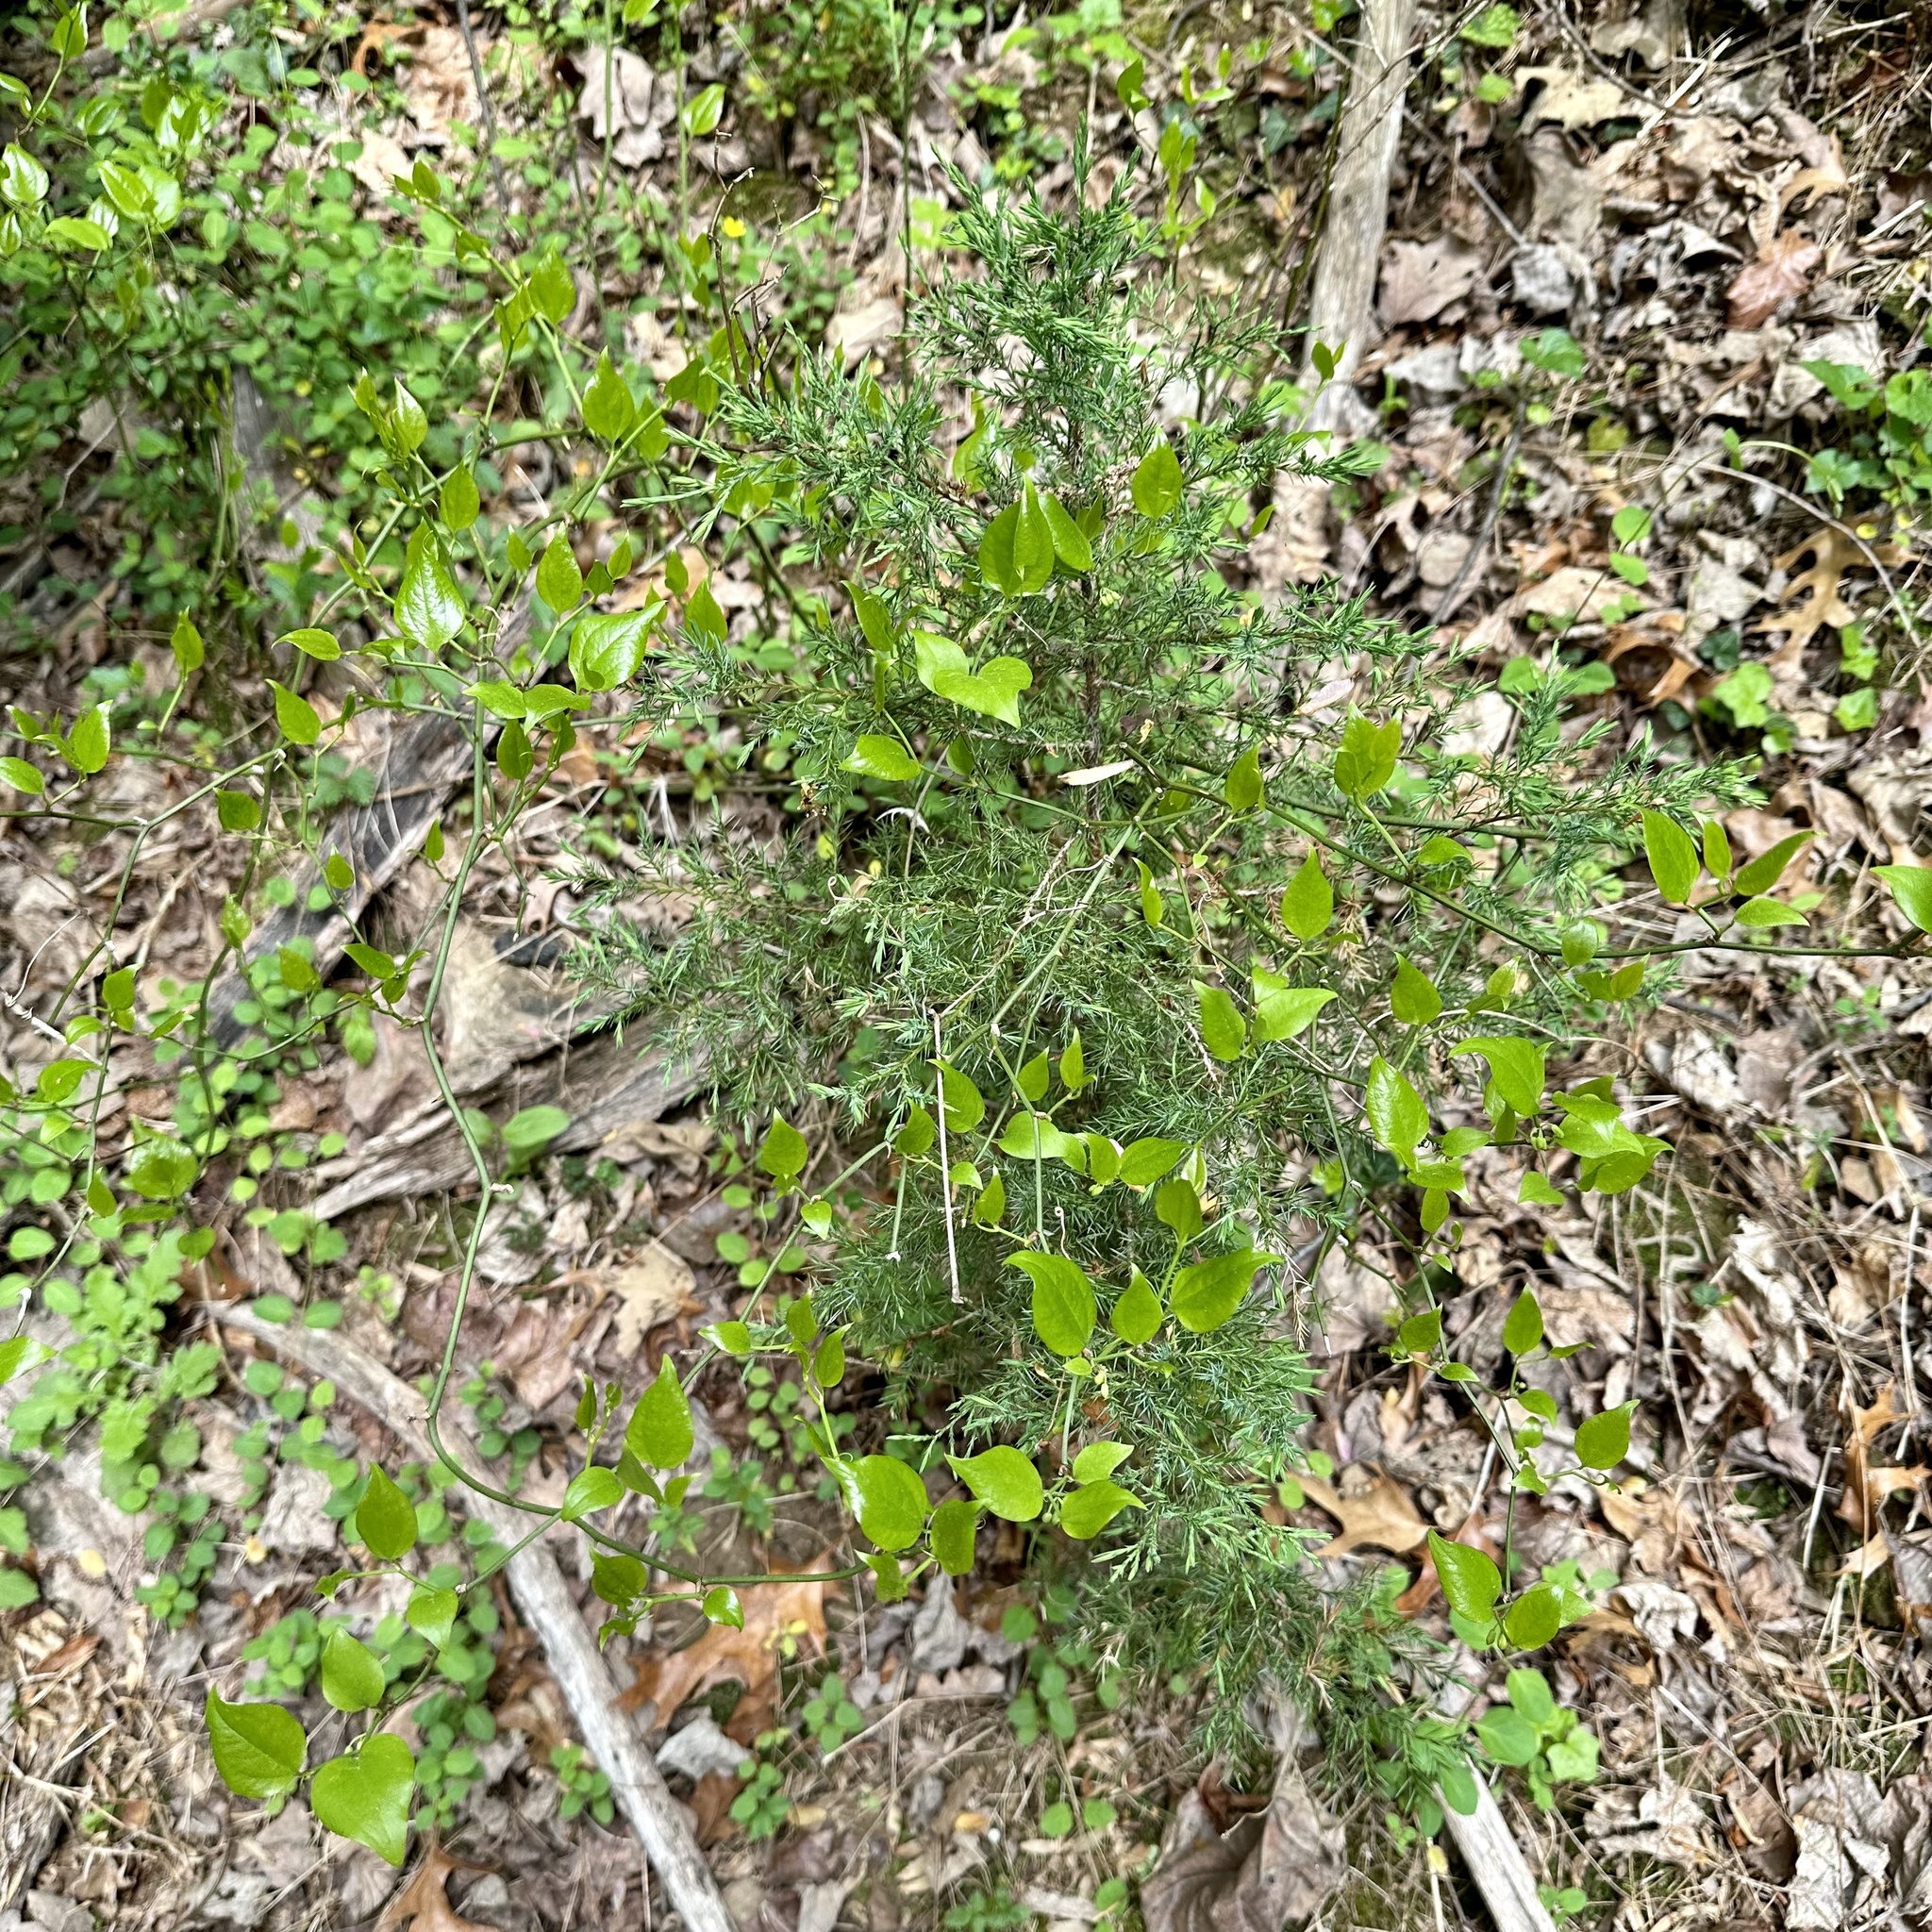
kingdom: Plantae
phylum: Tracheophyta
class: Liliopsida
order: Liliales
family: Smilacaceae
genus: Smilax
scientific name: Smilax rotundifolia
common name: Bullbriar
